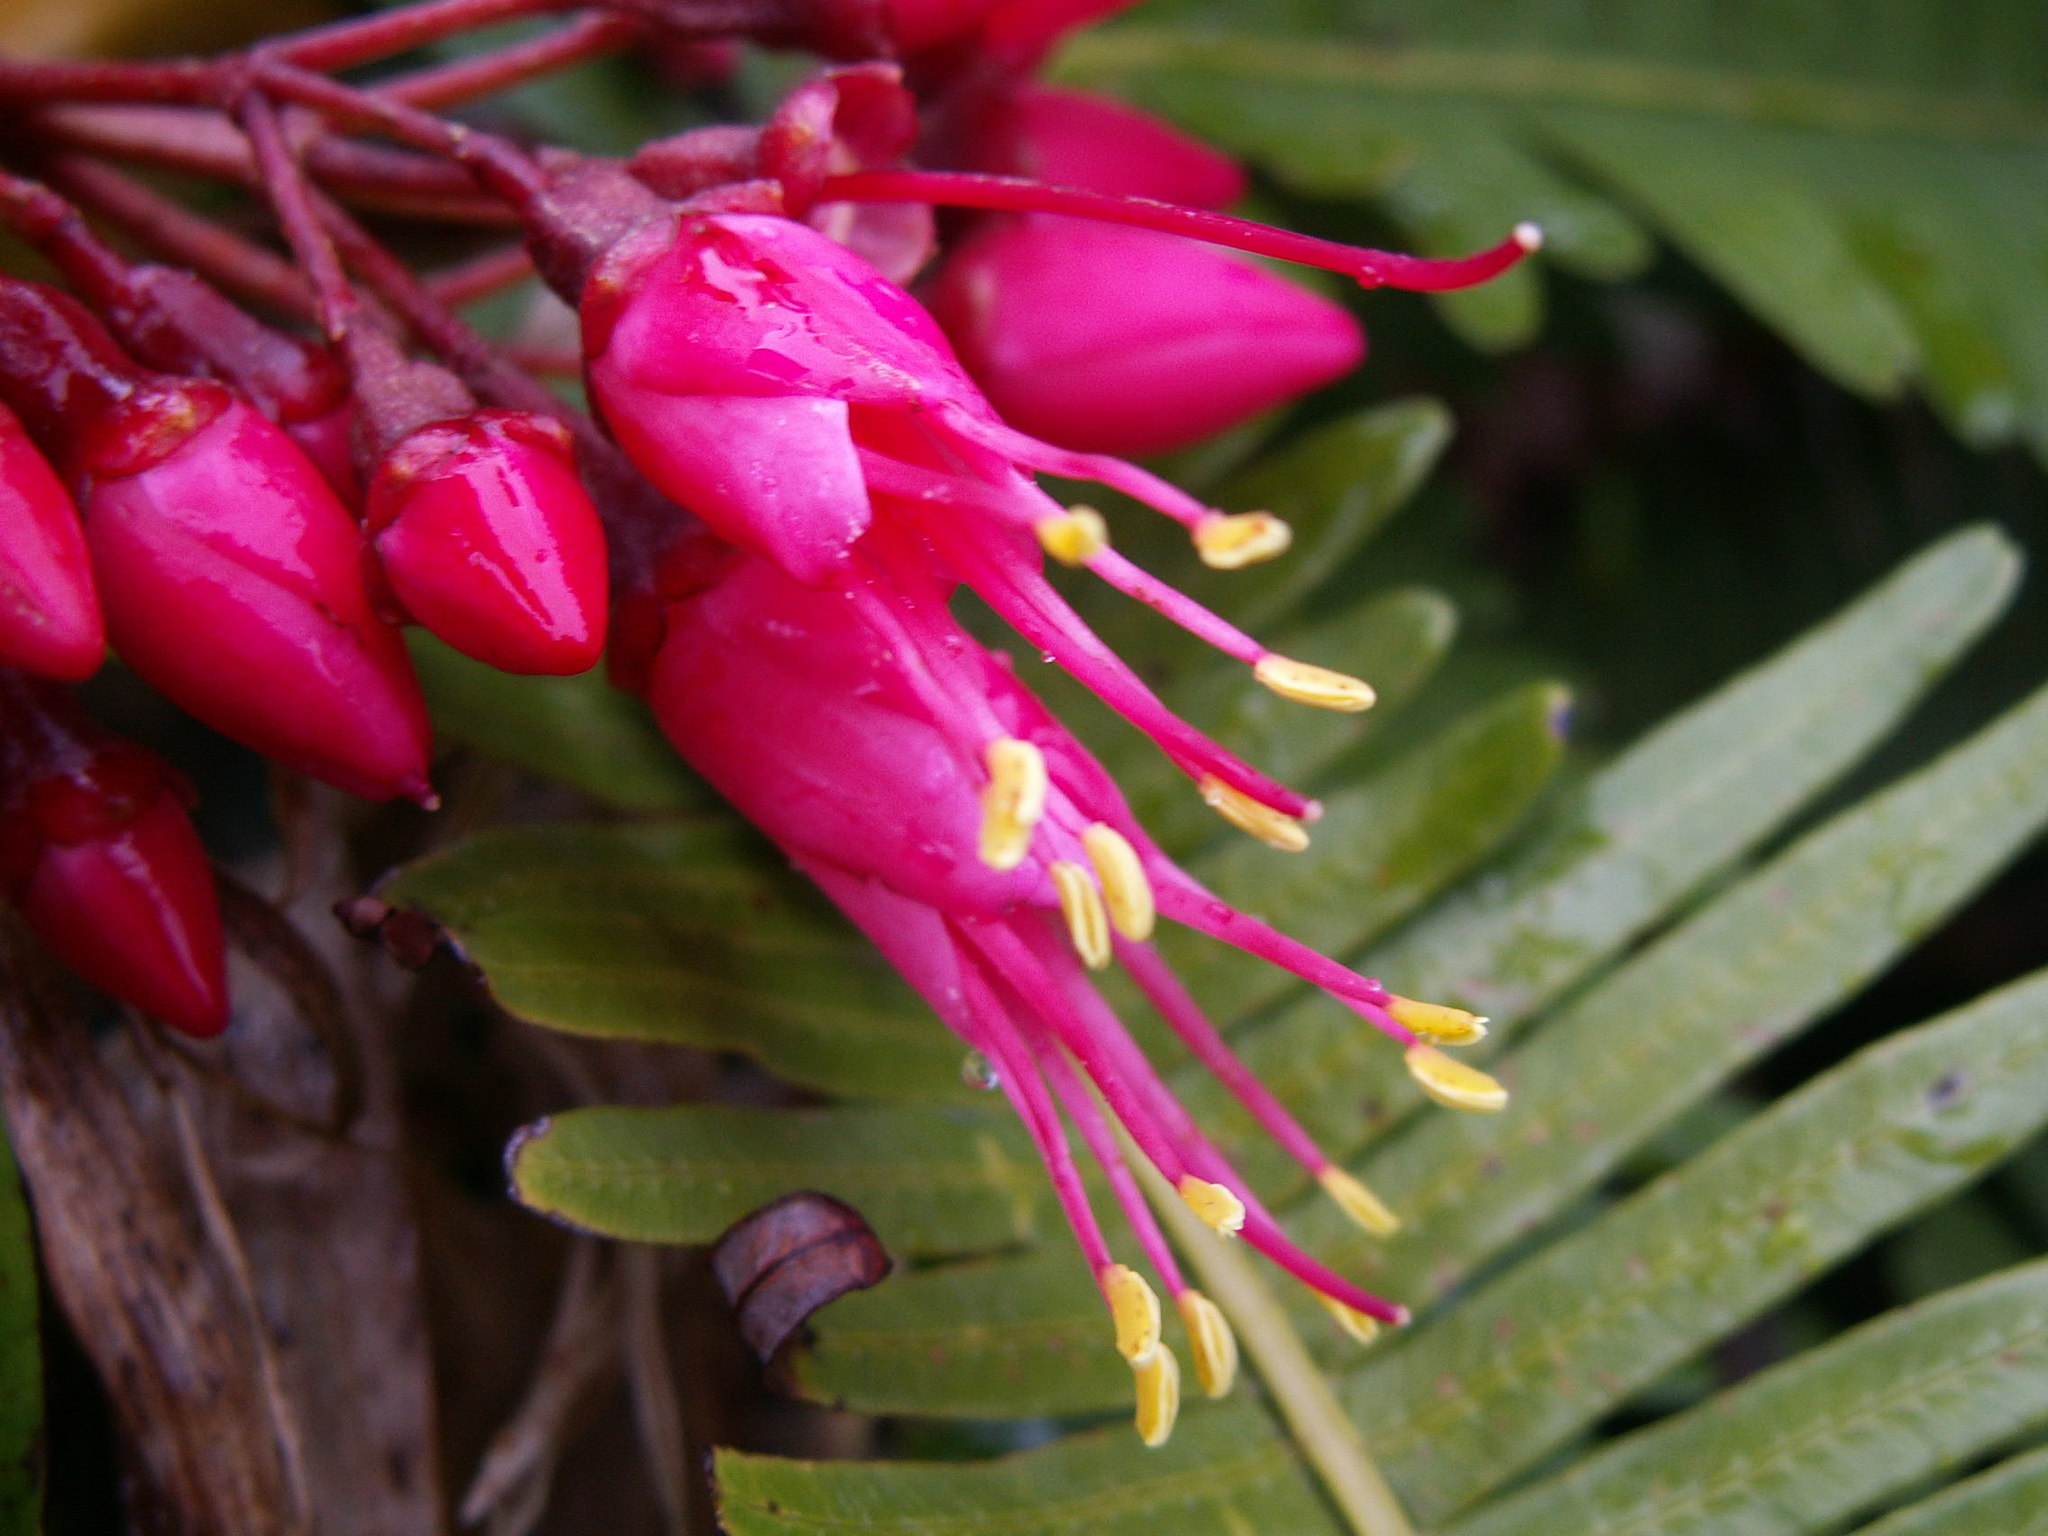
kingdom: Plantae
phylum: Tracheophyta
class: Magnoliopsida
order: Myrtales
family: Melastomataceae
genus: Miconia
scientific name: Miconia coccinea
